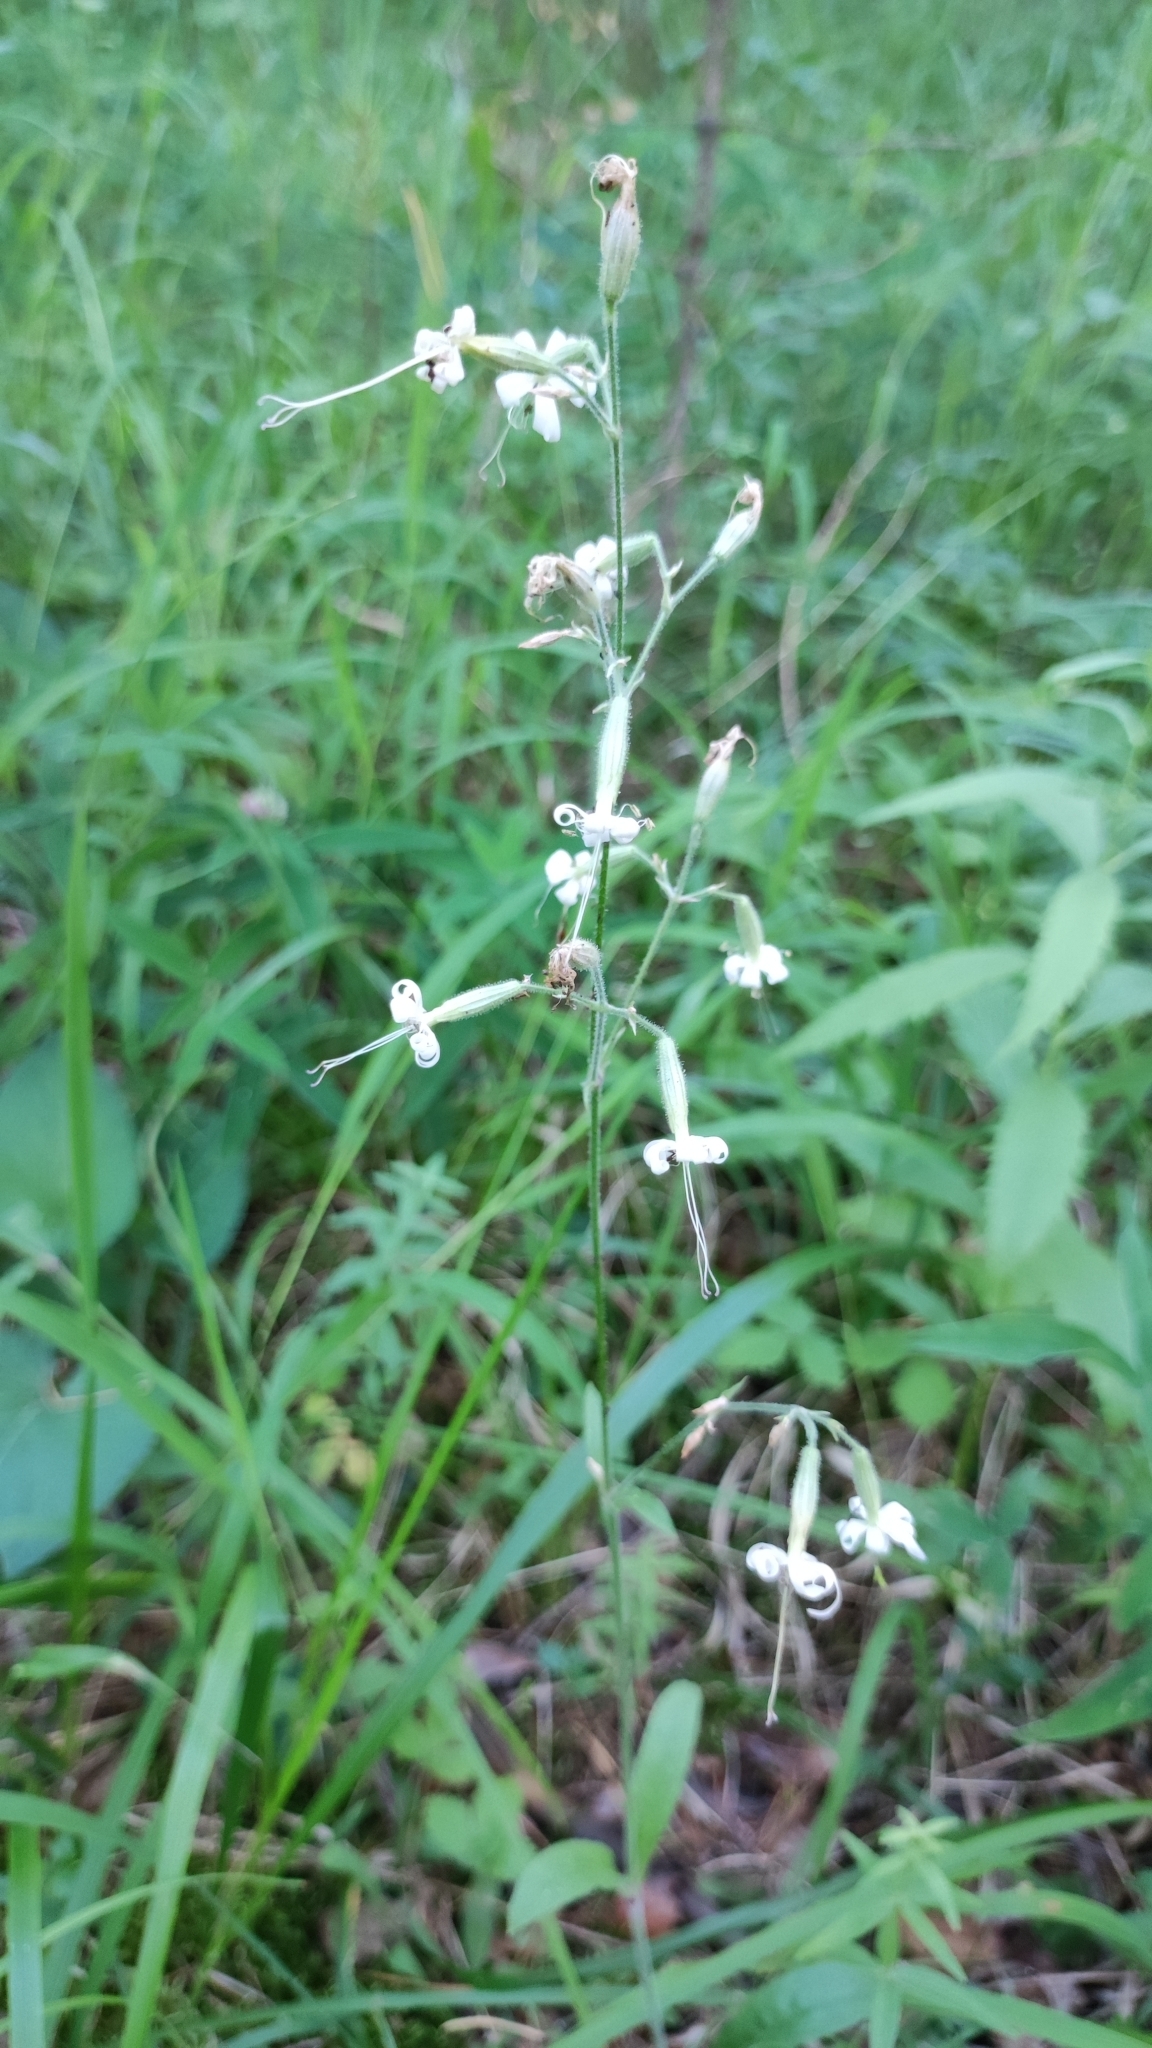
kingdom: Plantae
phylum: Tracheophyta
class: Magnoliopsida
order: Caryophyllales
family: Caryophyllaceae
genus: Silene
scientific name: Silene nutans
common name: Nottingham catchfly
